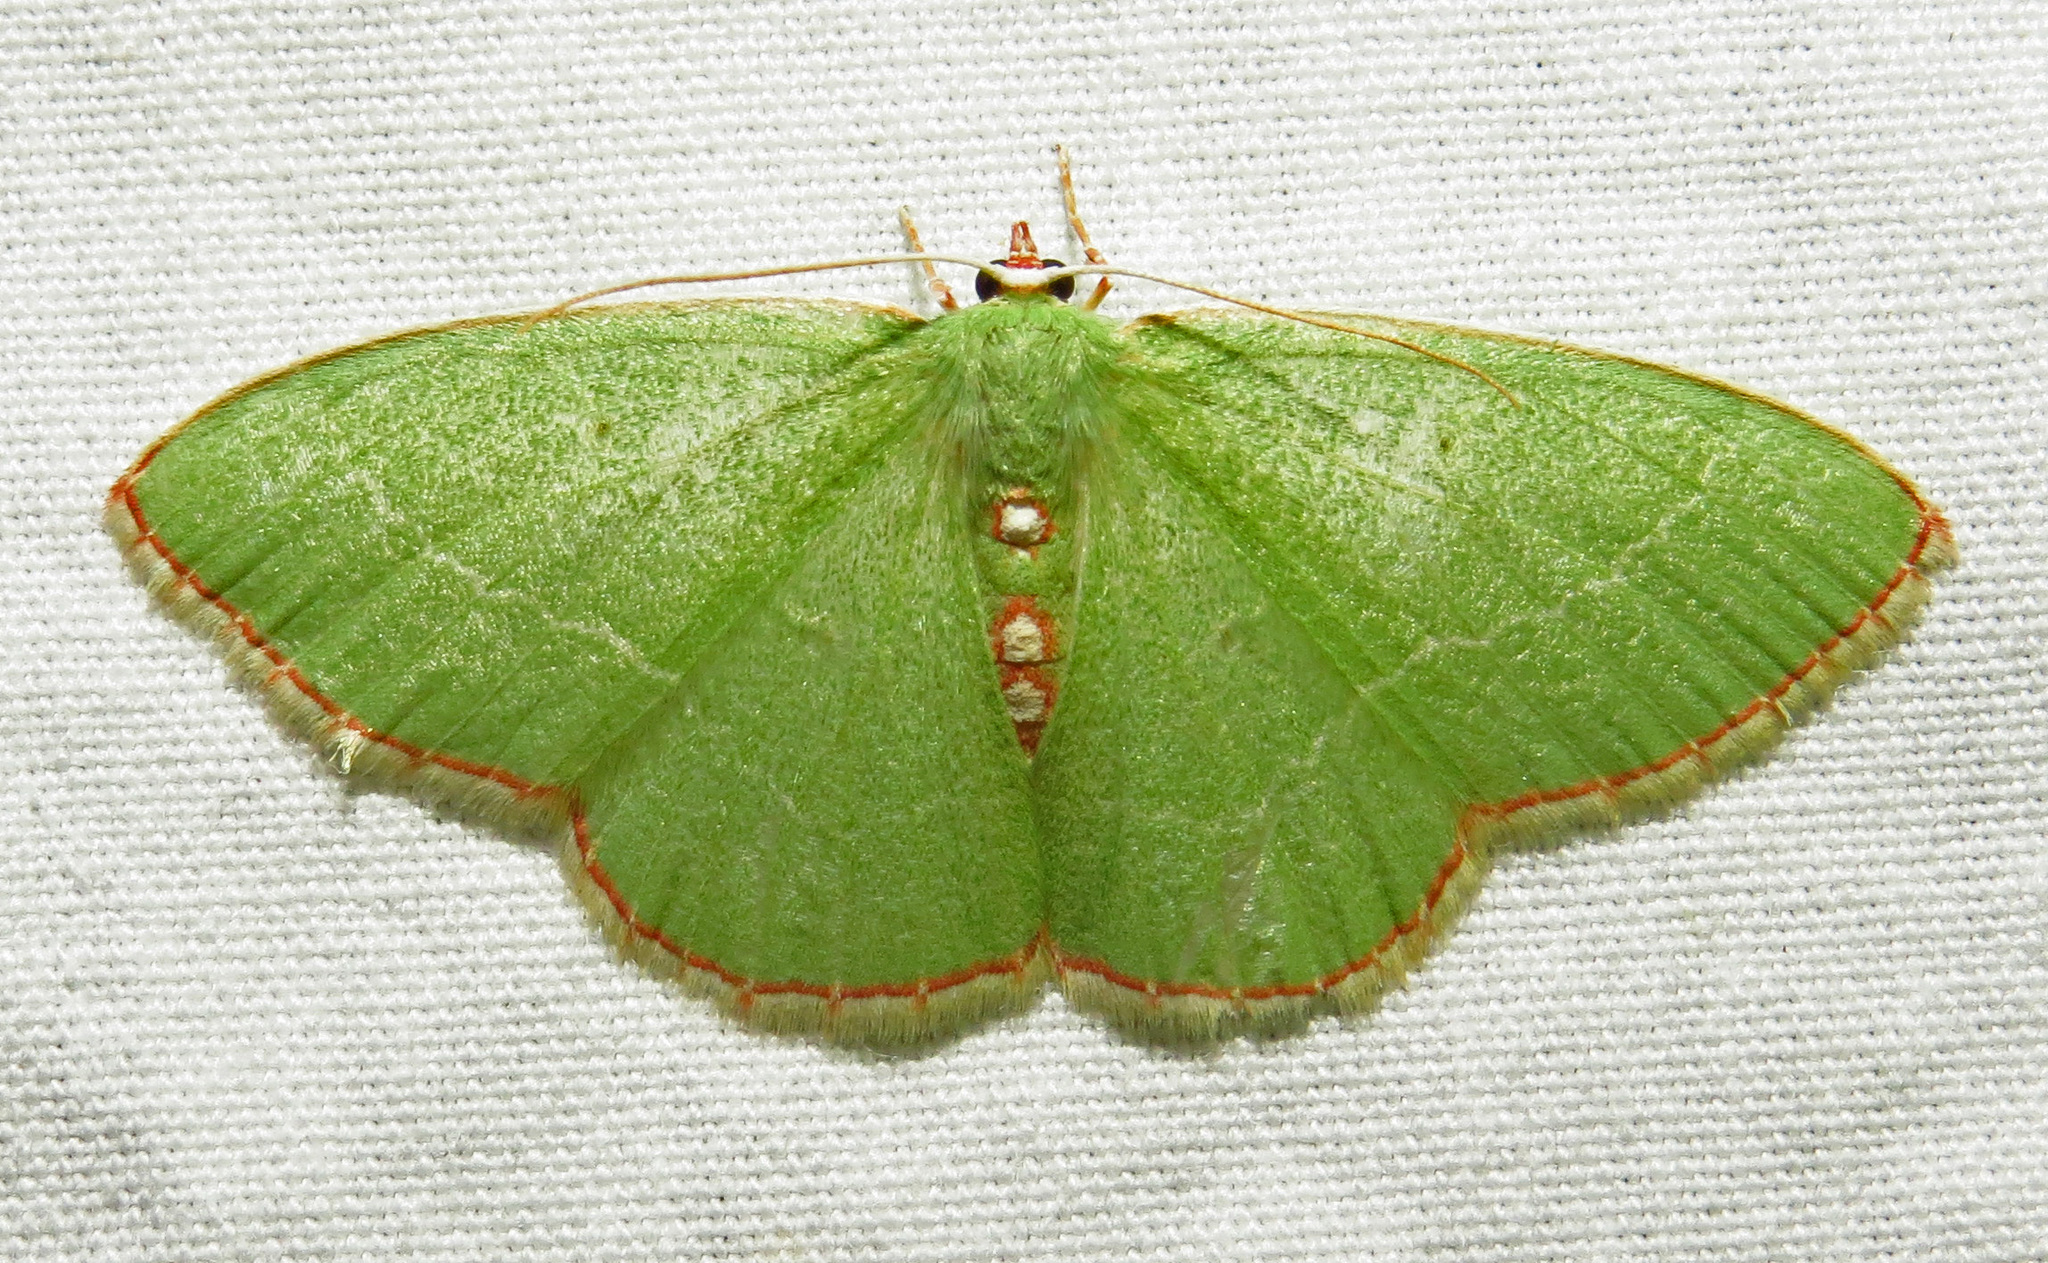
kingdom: Animalia
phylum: Arthropoda
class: Insecta
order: Lepidoptera
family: Geometridae
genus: Nemoria
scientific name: Nemoria lixaria
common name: Red-bordered emerald
